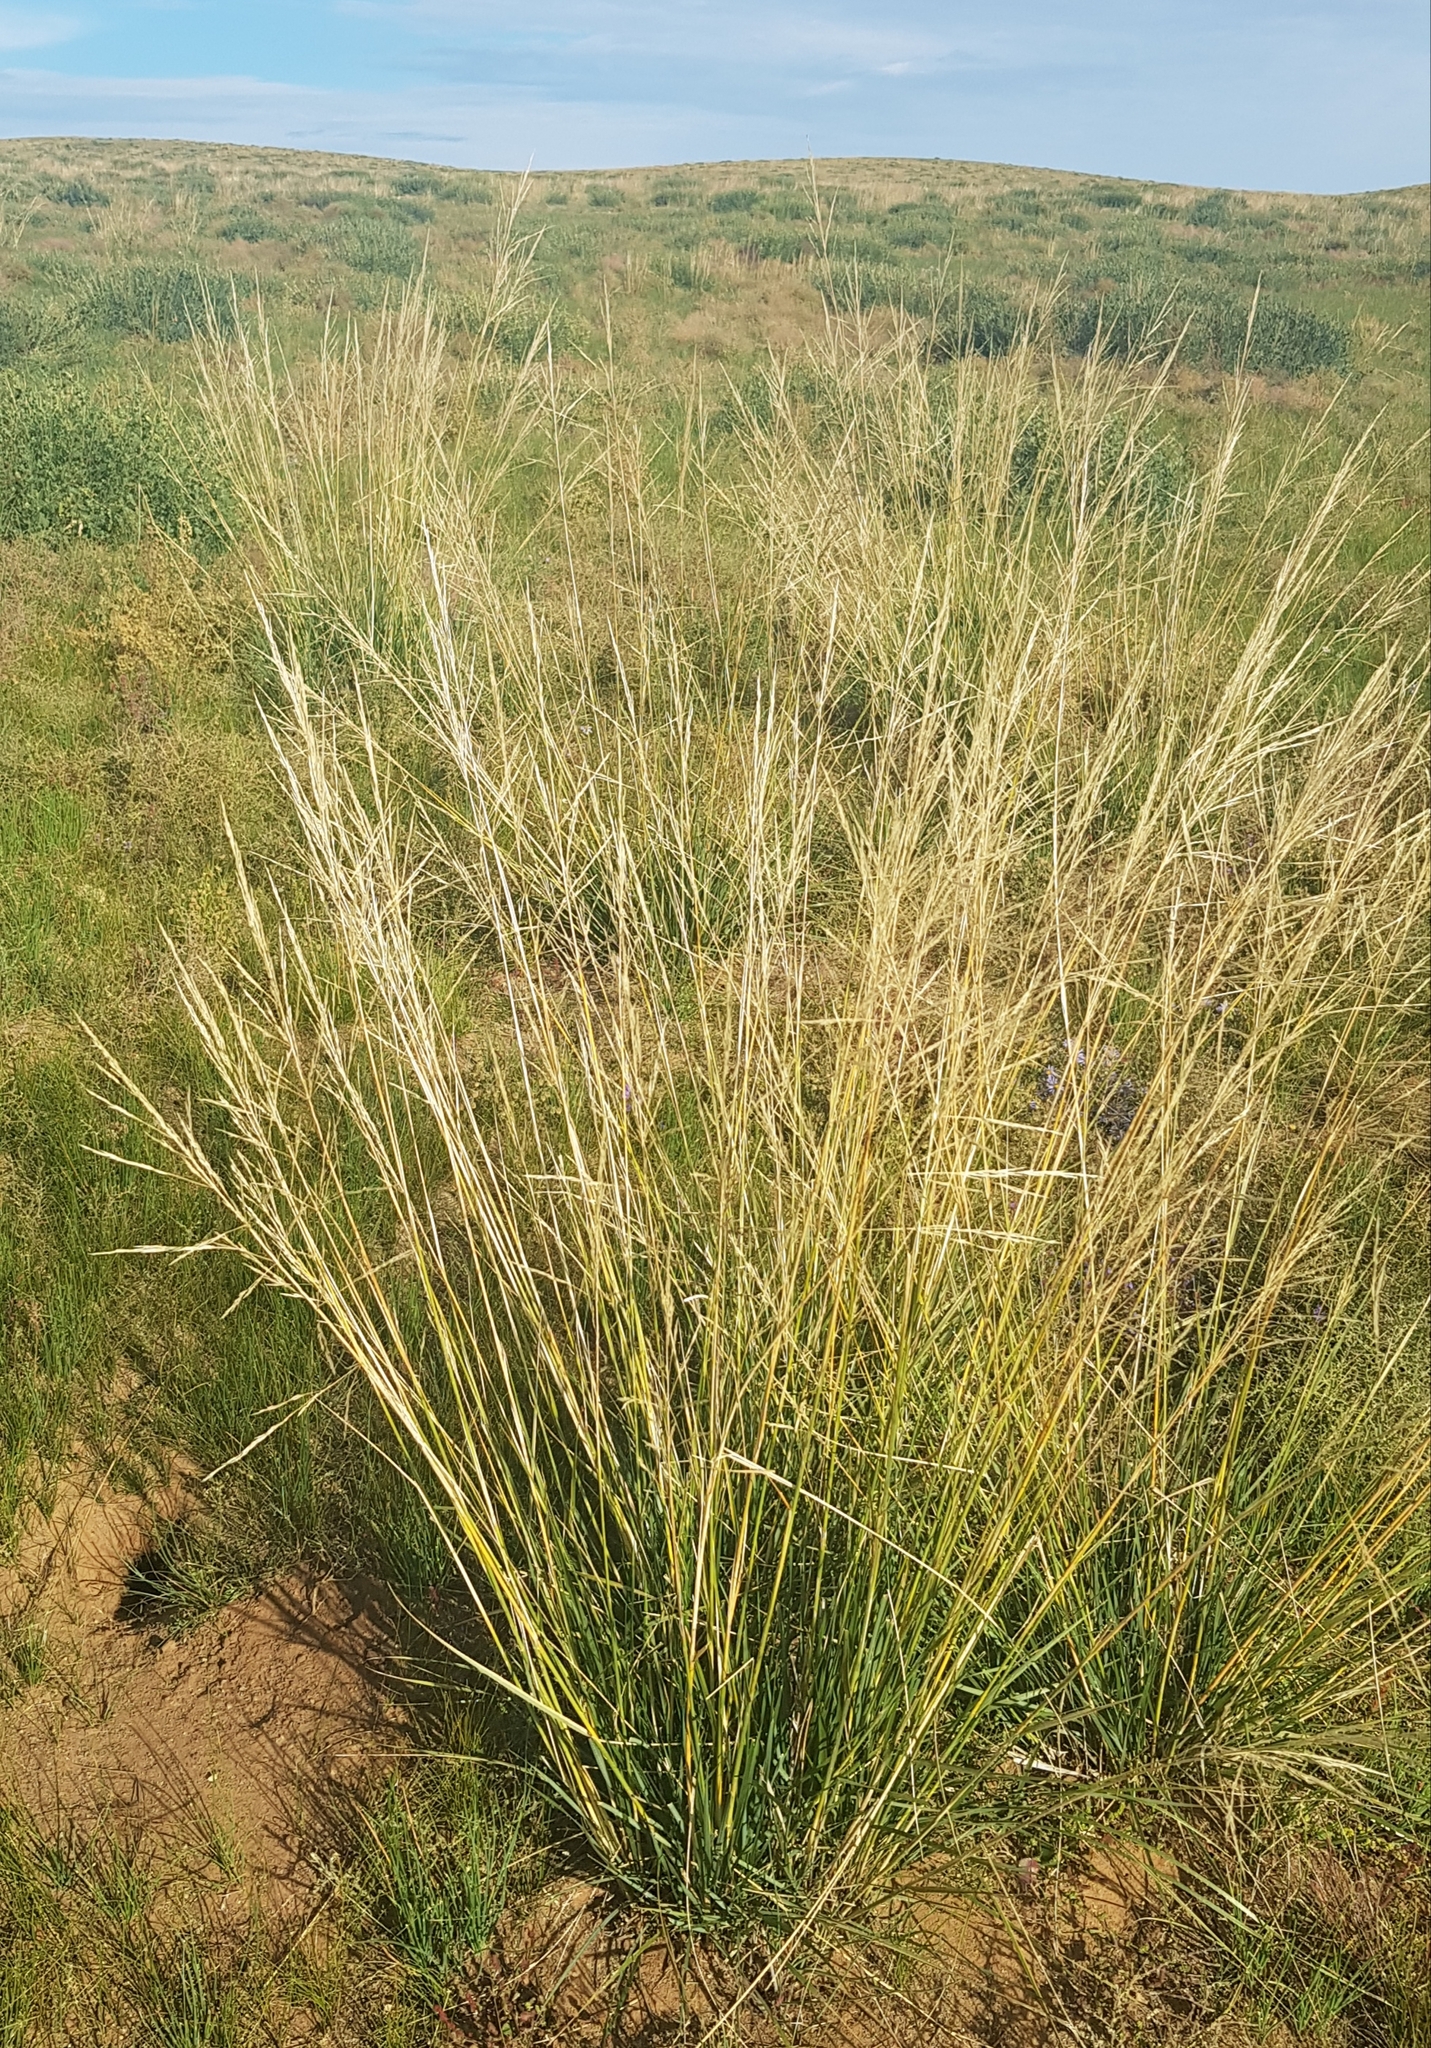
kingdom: Plantae
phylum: Tracheophyta
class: Liliopsida
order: Poales
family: Poaceae
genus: Neotrinia
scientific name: Neotrinia splendens
